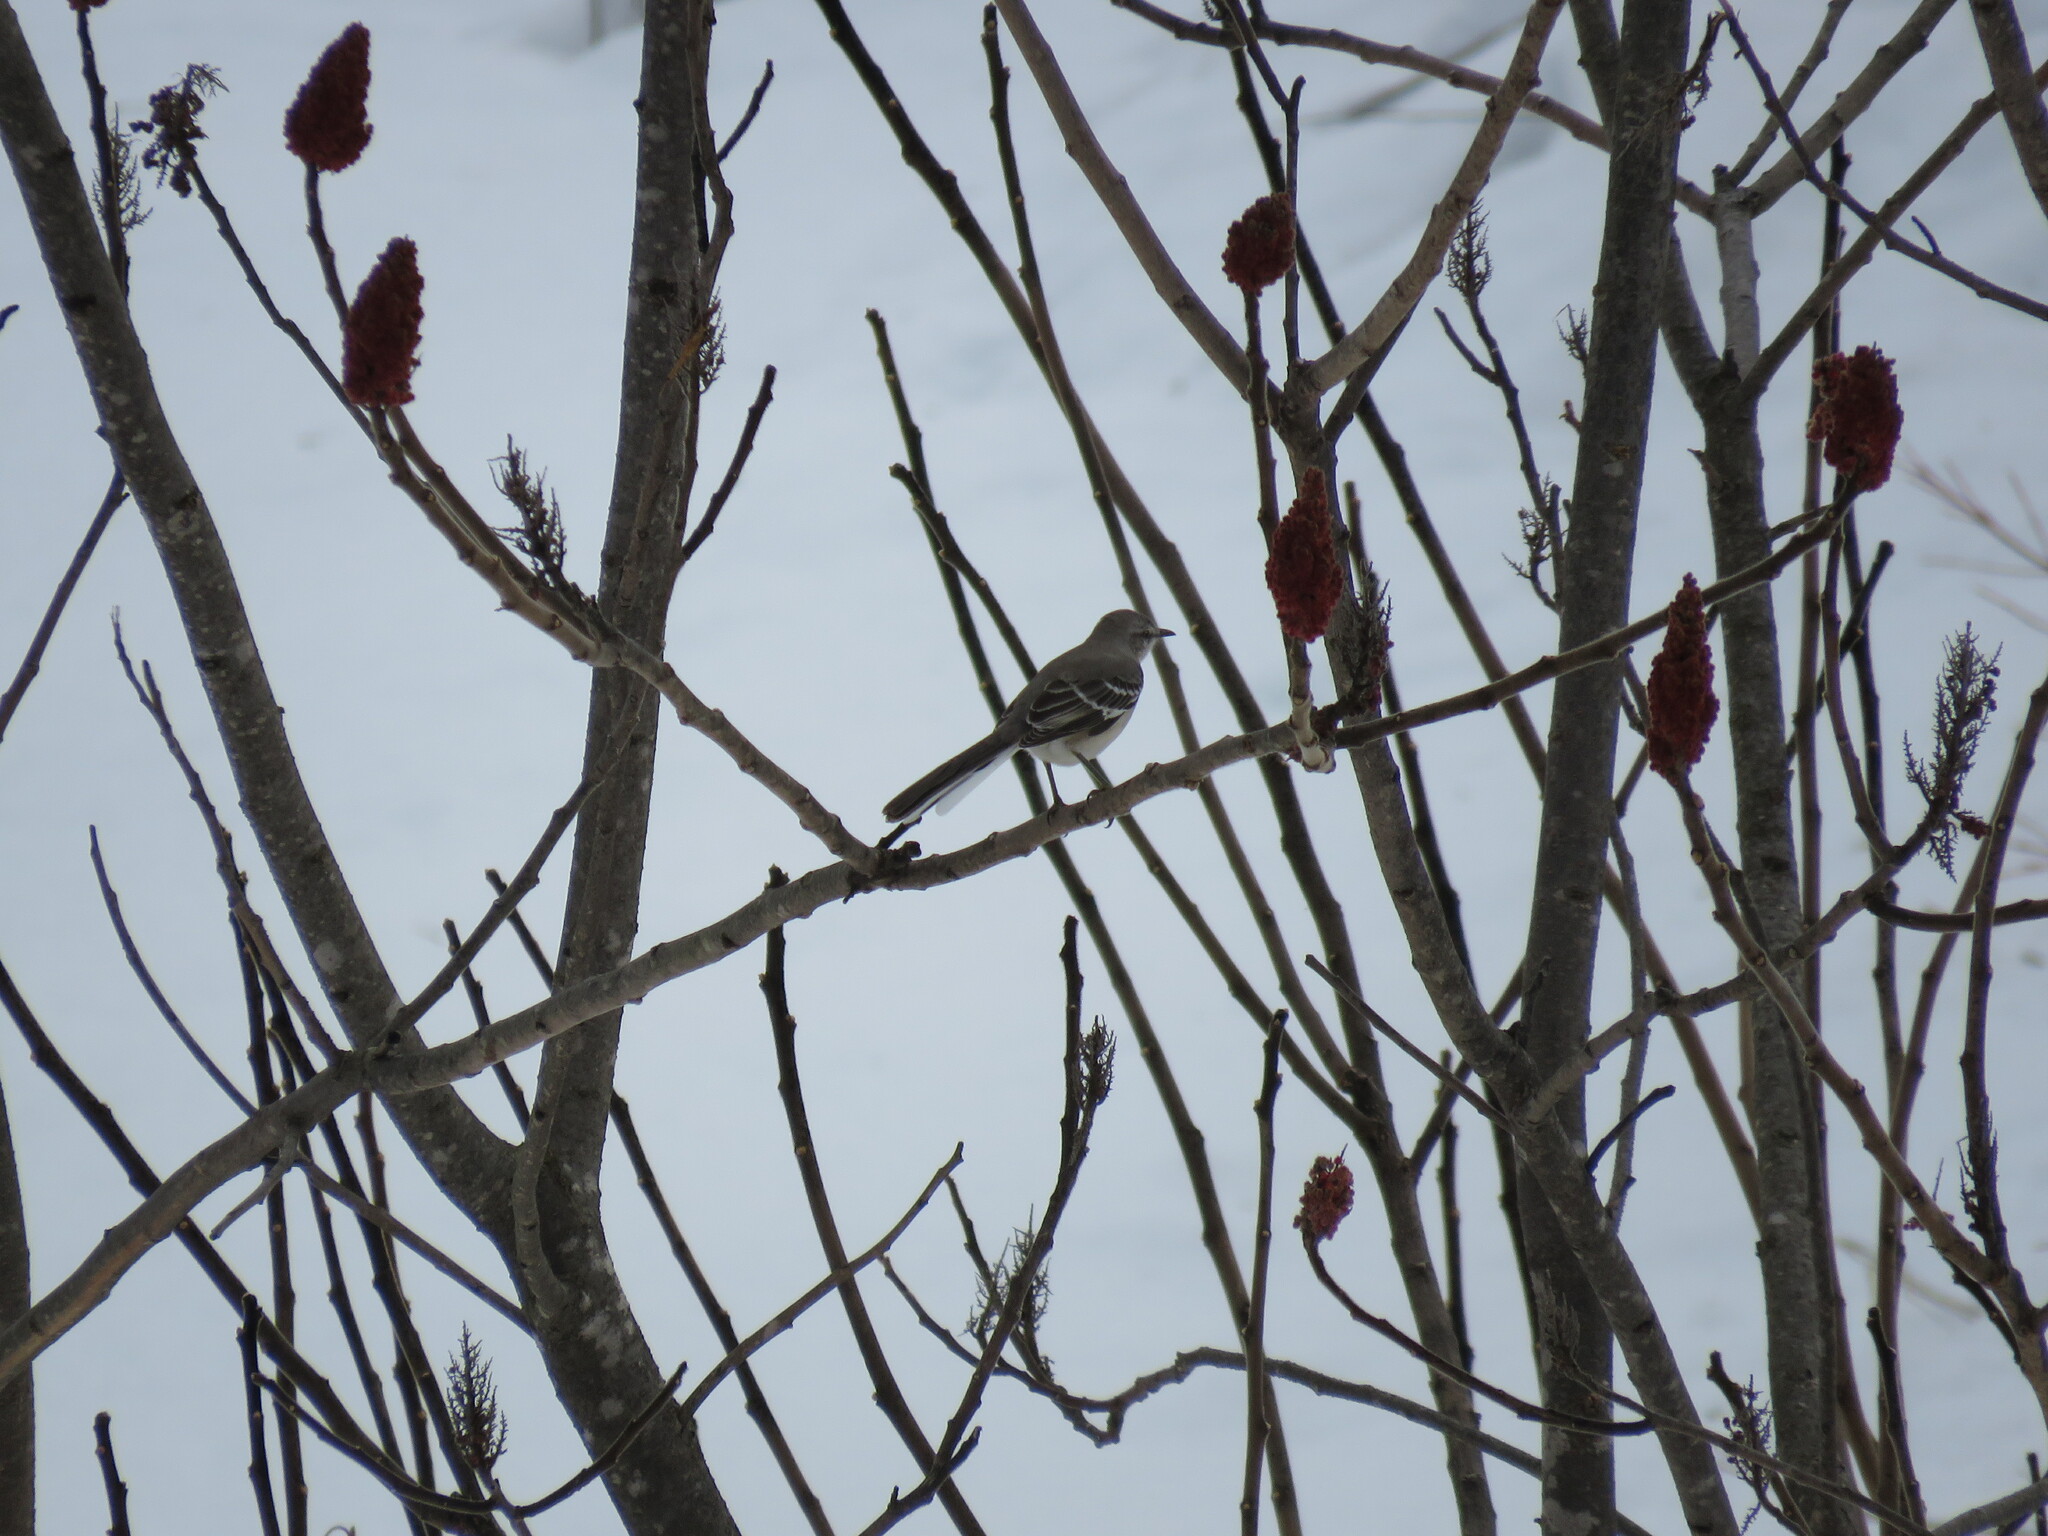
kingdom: Animalia
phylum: Chordata
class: Aves
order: Passeriformes
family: Mimidae
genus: Mimus
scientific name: Mimus polyglottos
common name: Northern mockingbird
